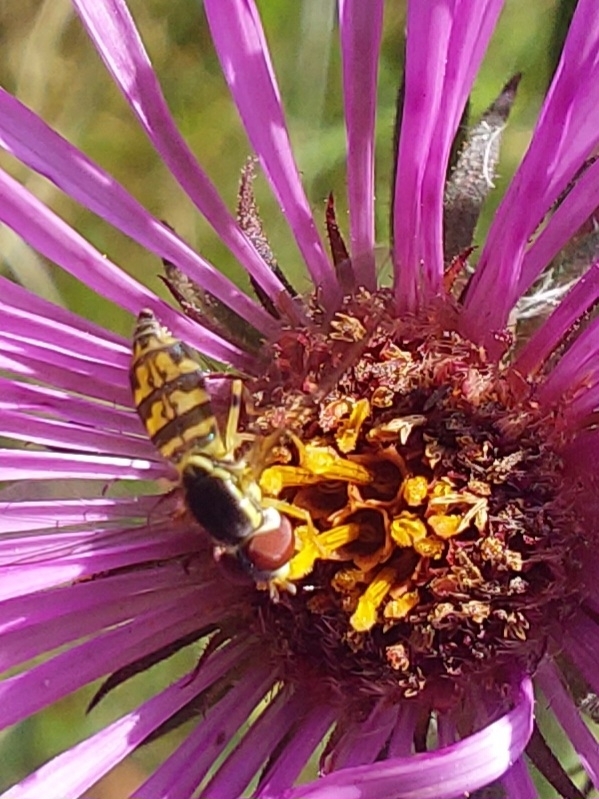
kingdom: Animalia
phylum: Arthropoda
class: Insecta
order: Diptera
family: Syrphidae
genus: Toxomerus
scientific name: Toxomerus geminatus
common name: Eastern calligrapher
